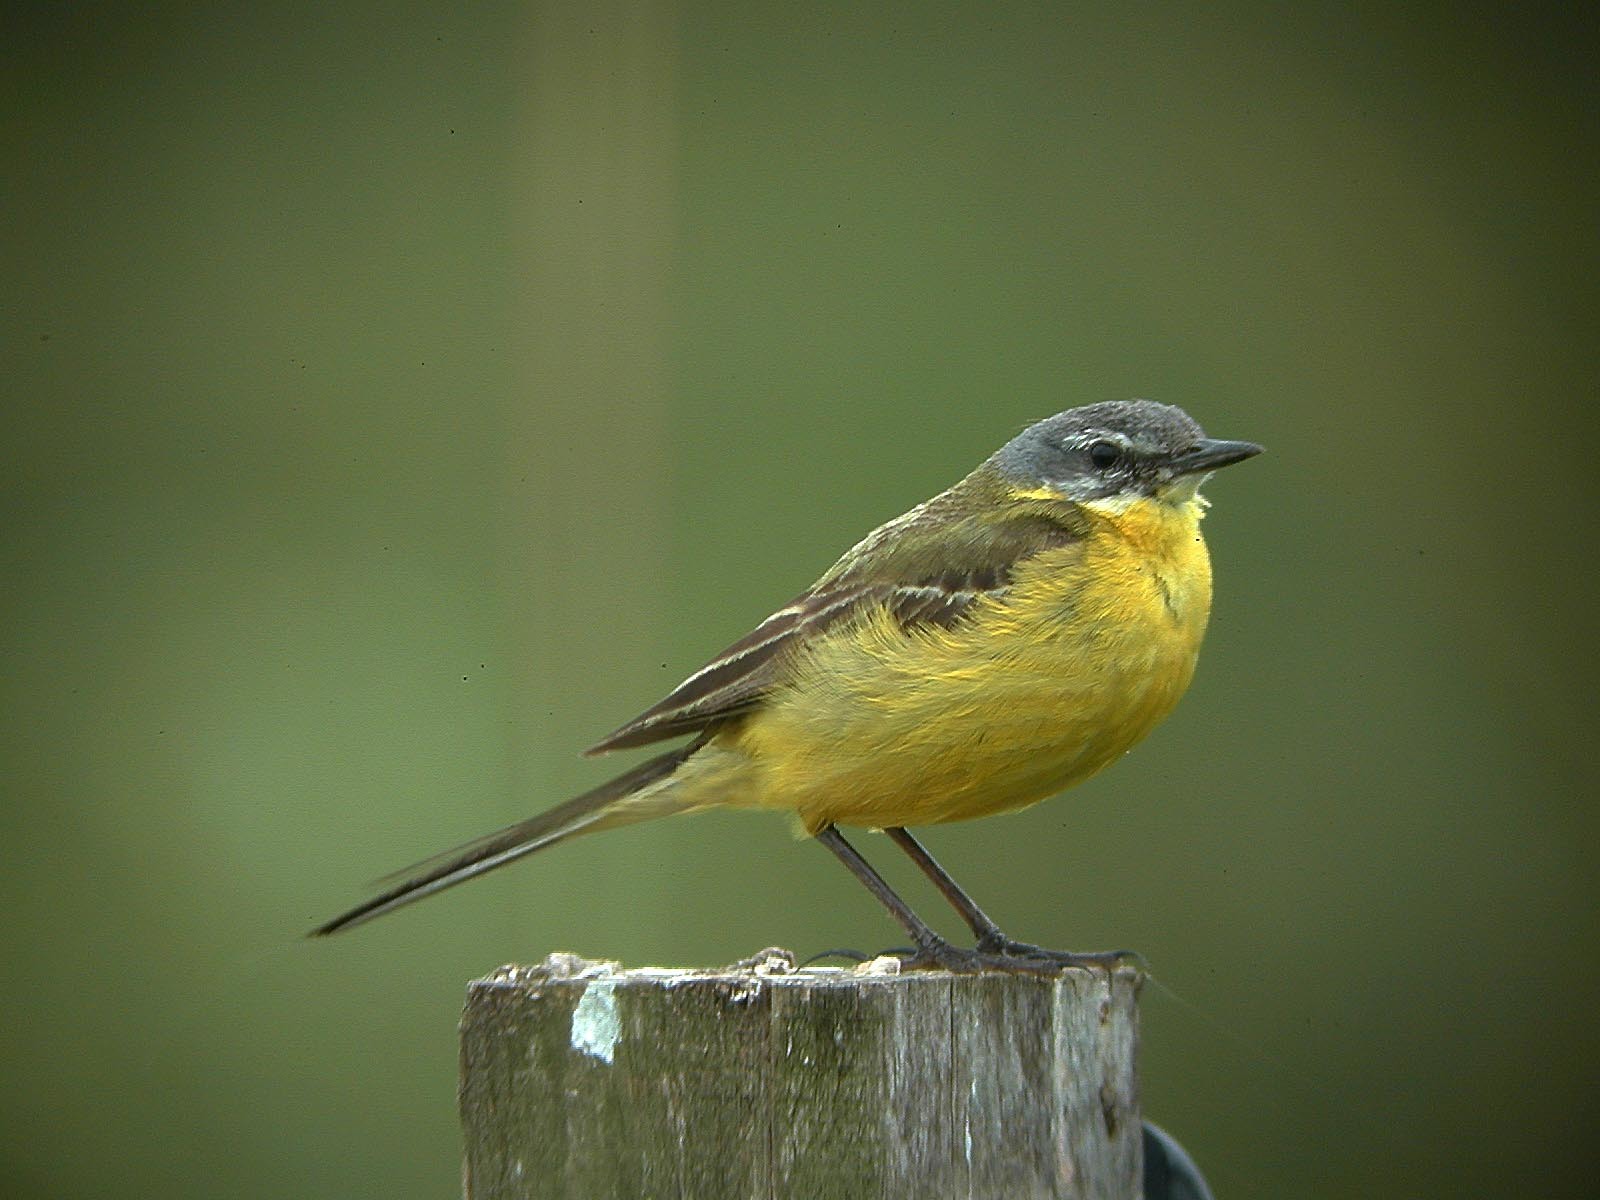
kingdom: Animalia
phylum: Chordata
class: Aves
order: Passeriformes
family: Motacillidae
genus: Motacilla
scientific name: Motacilla flava
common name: Western yellow wagtail
